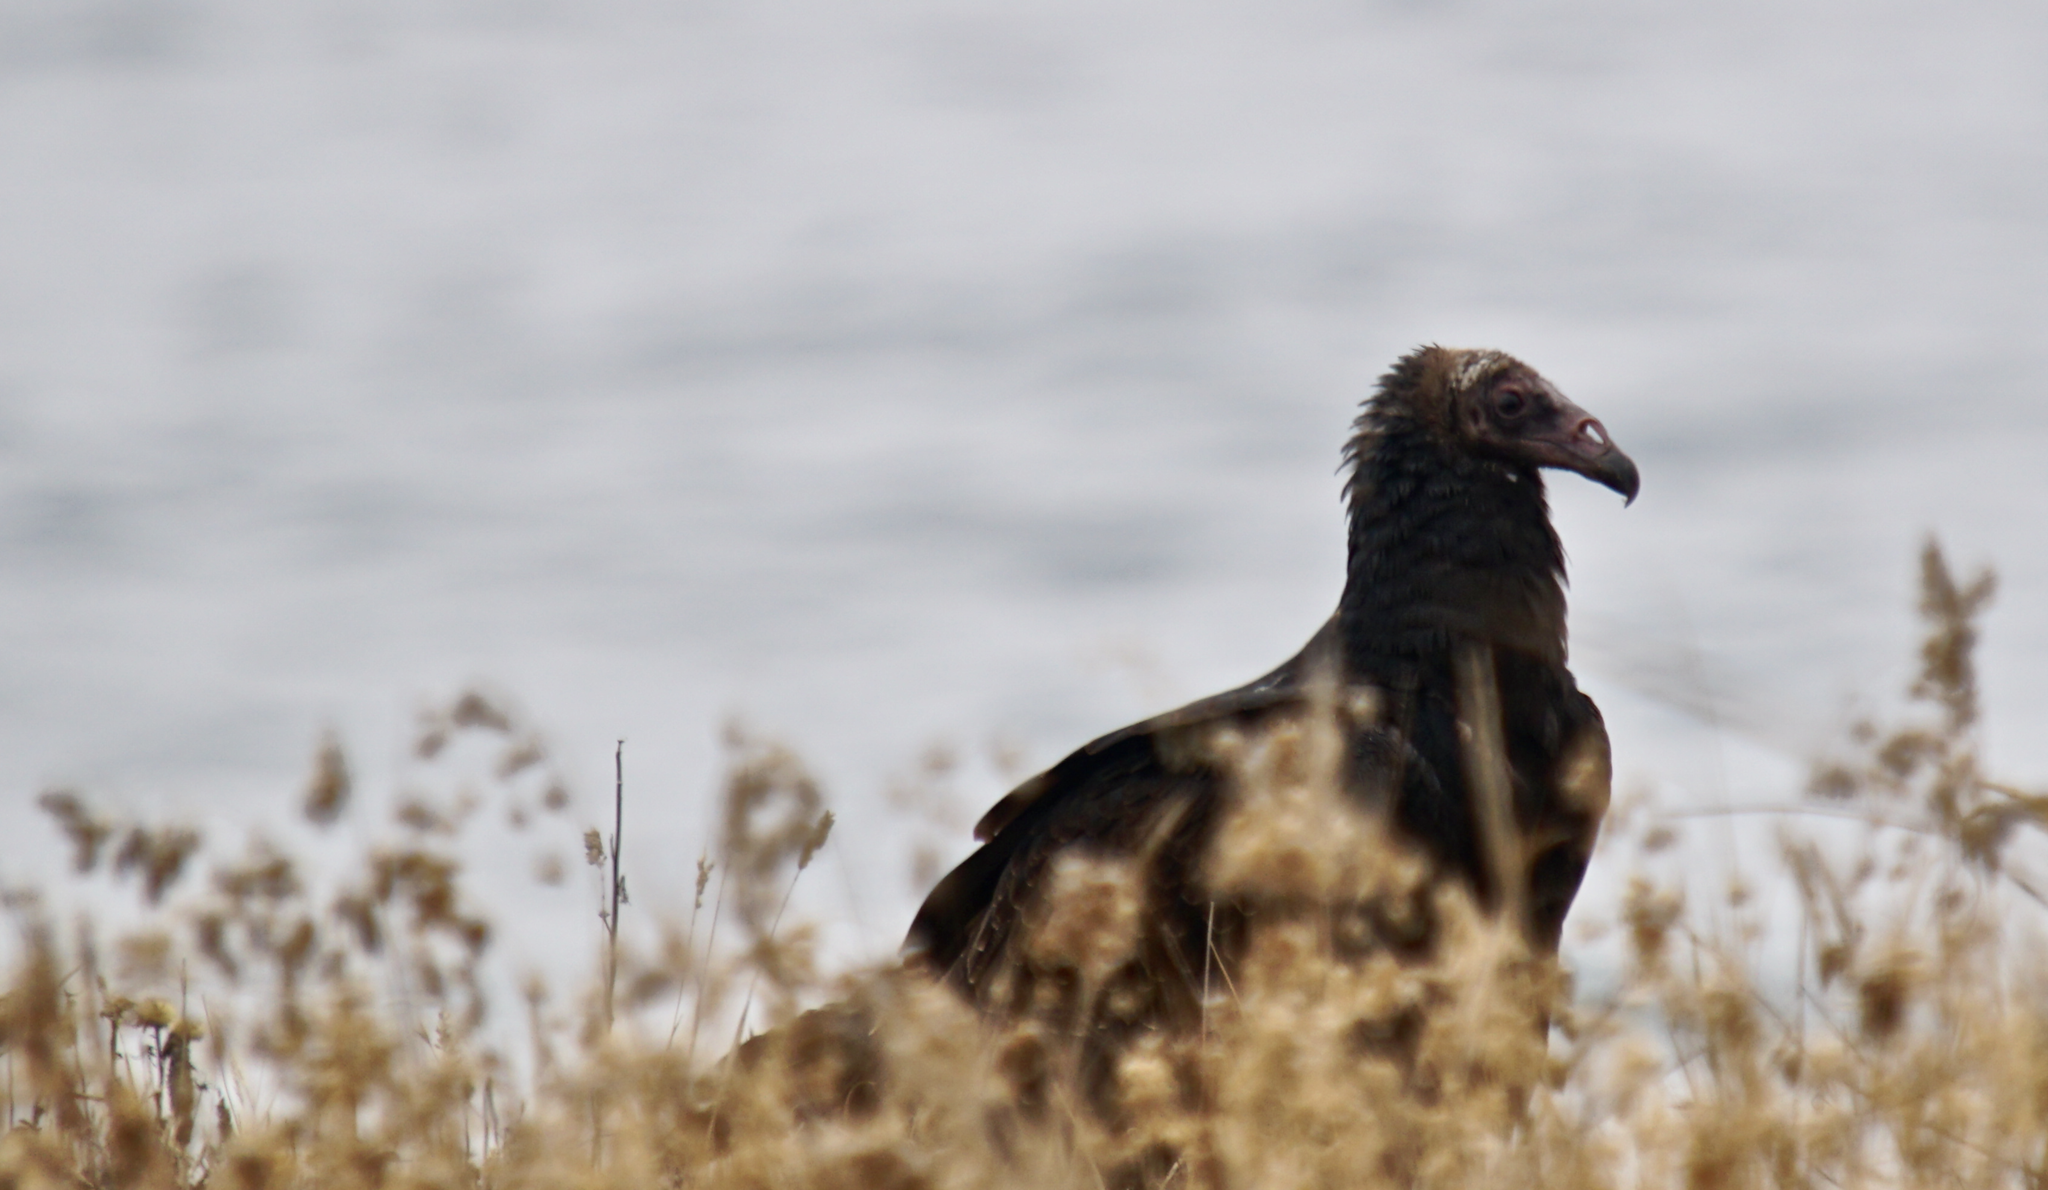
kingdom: Animalia
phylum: Chordata
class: Aves
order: Accipitriformes
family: Cathartidae
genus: Cathartes
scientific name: Cathartes aura
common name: Turkey vulture
